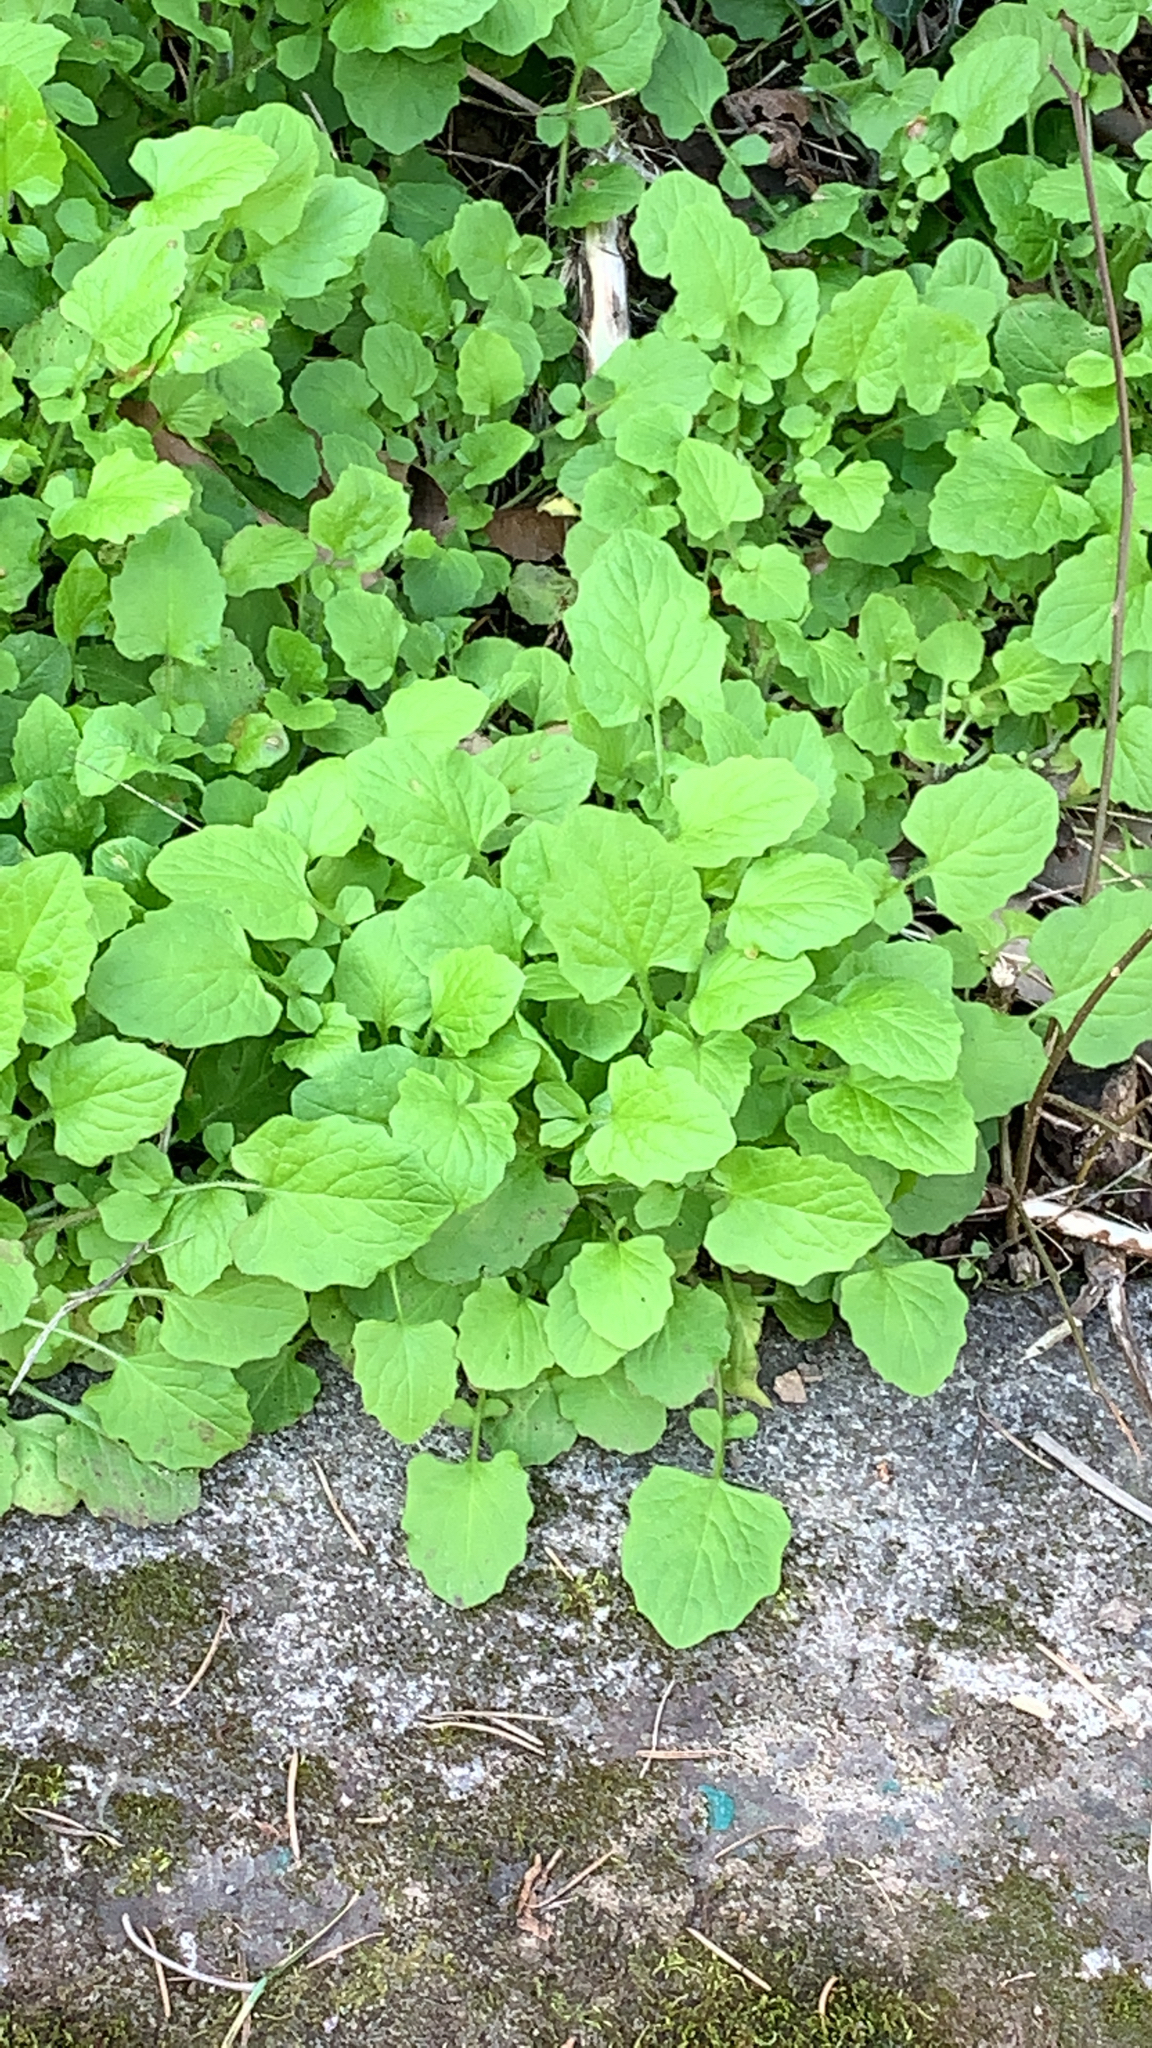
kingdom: Plantae
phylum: Tracheophyta
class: Magnoliopsida
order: Asterales
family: Asteraceae
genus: Lapsana
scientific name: Lapsana communis
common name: Nipplewort
